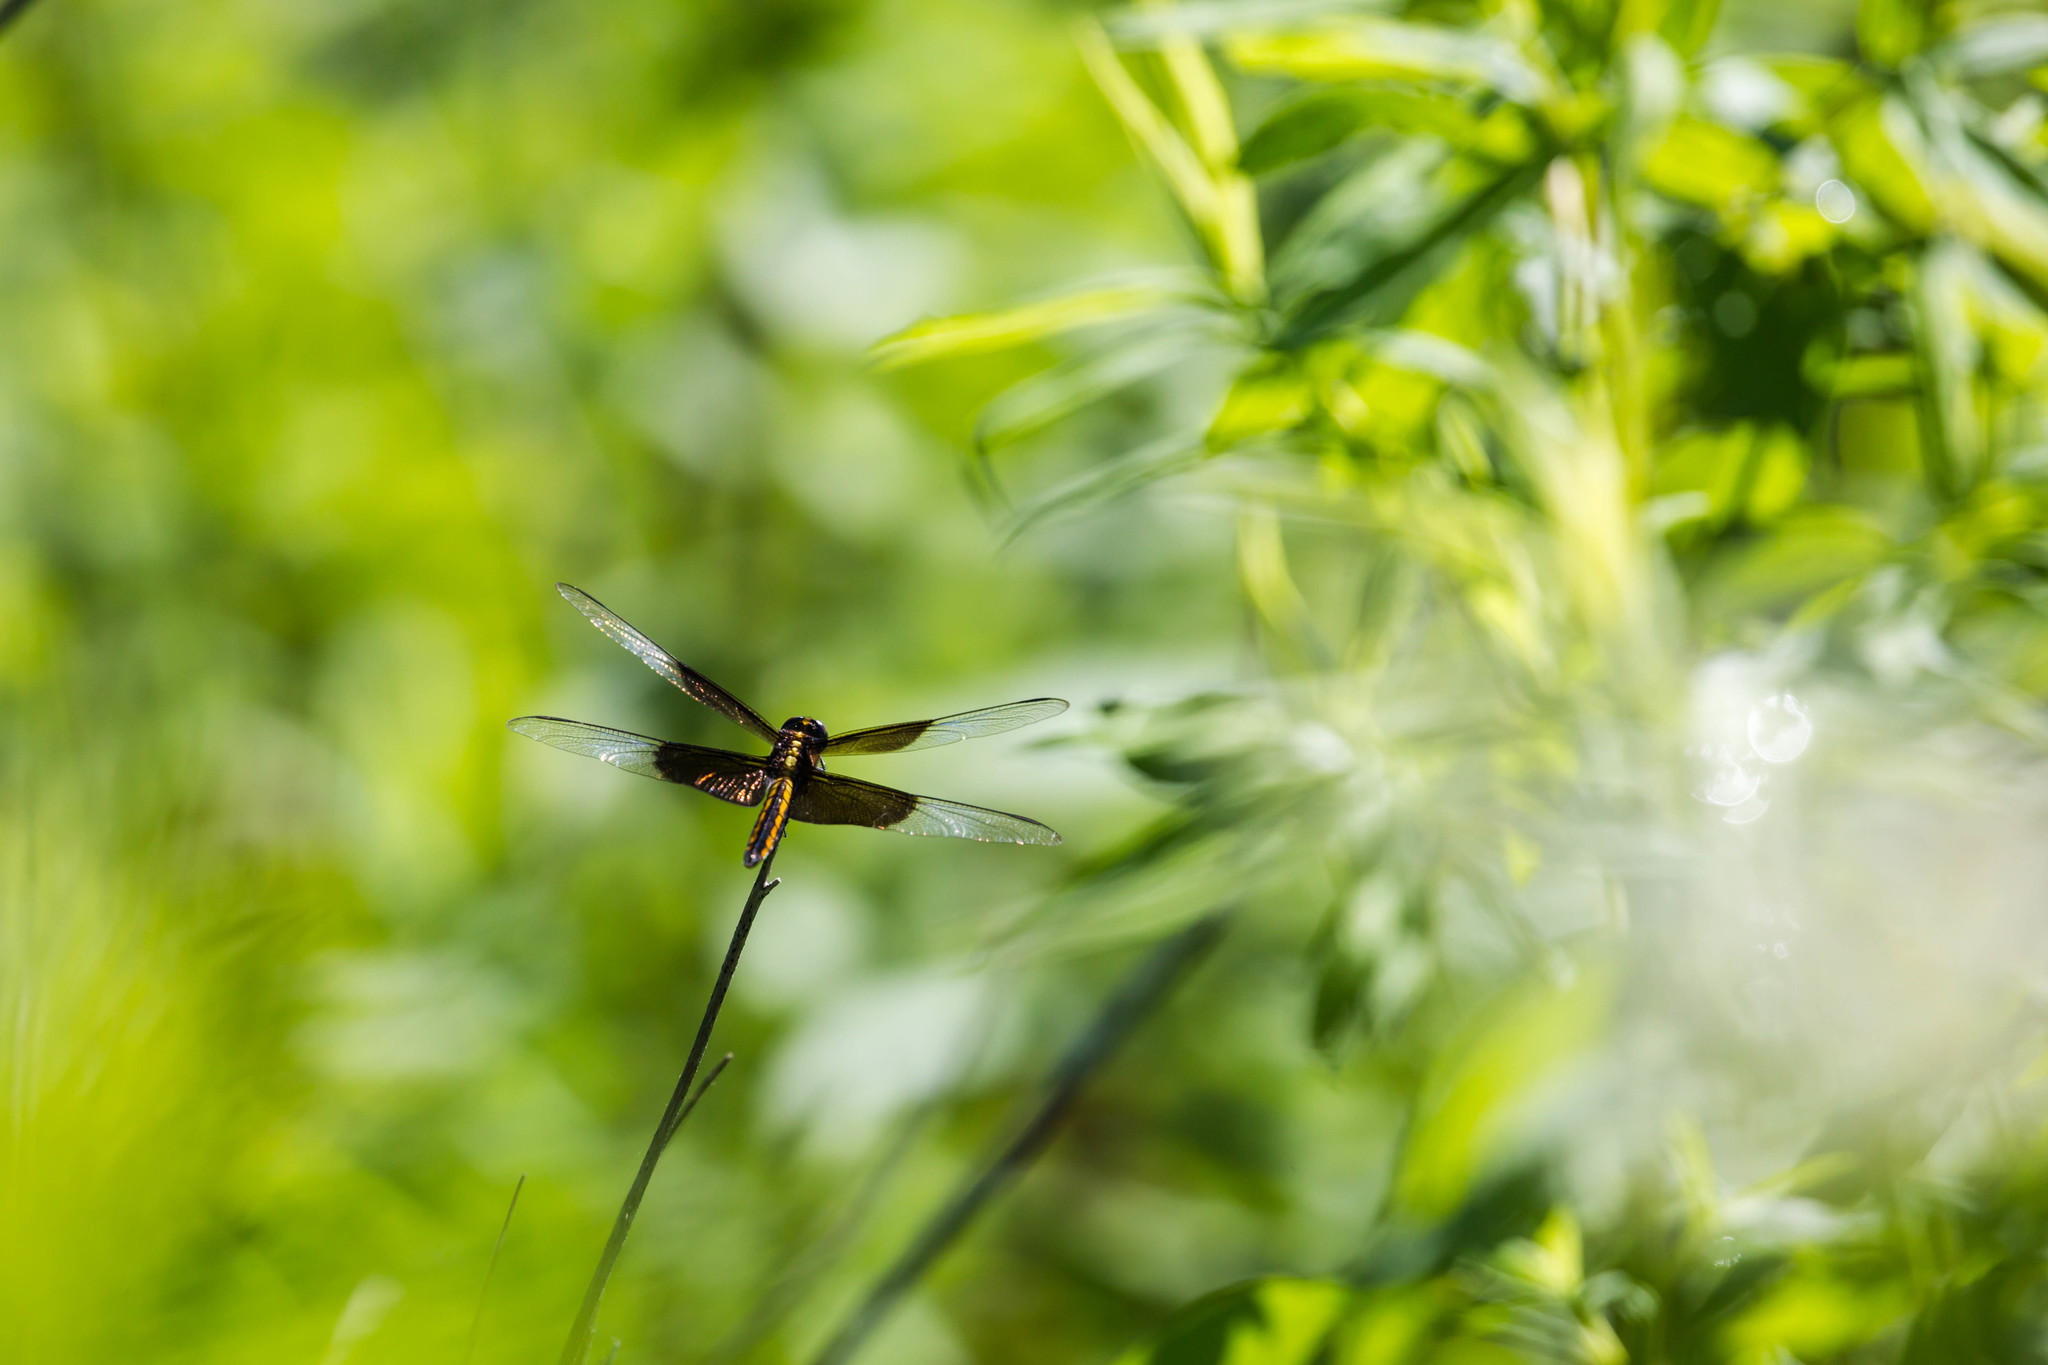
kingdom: Animalia
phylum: Arthropoda
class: Insecta
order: Odonata
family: Libellulidae
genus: Libellula
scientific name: Libellula luctuosa
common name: Widow skimmer
